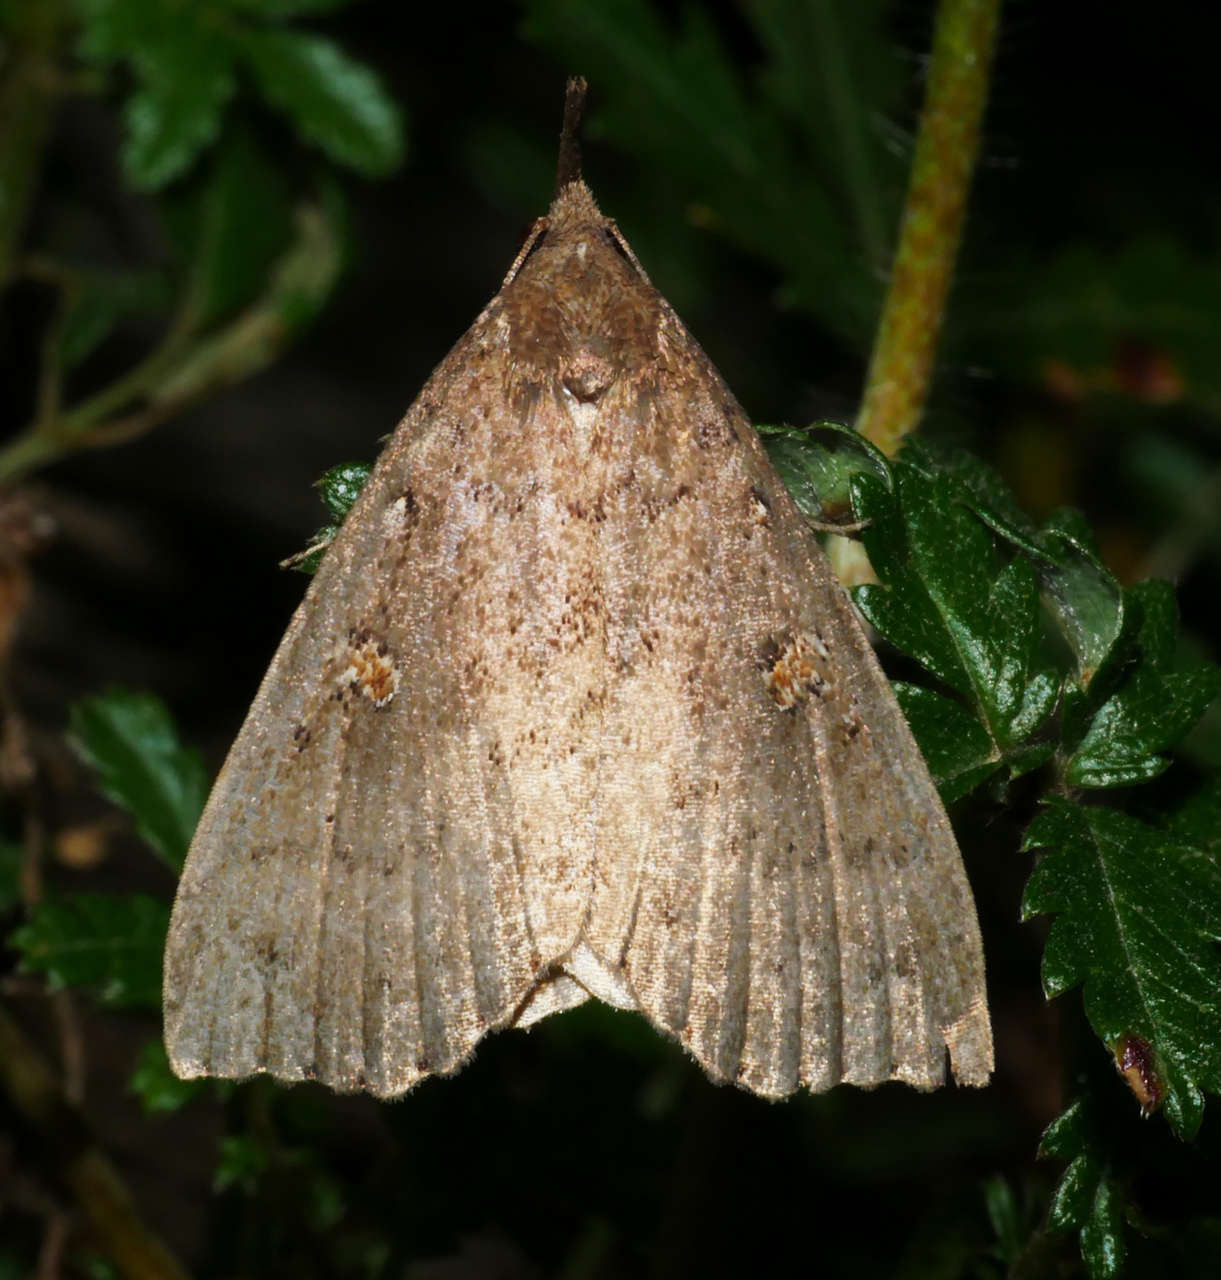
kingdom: Animalia
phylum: Arthropoda
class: Insecta
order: Lepidoptera
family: Erebidae
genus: Rhapsa
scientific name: Rhapsa eretmophora
